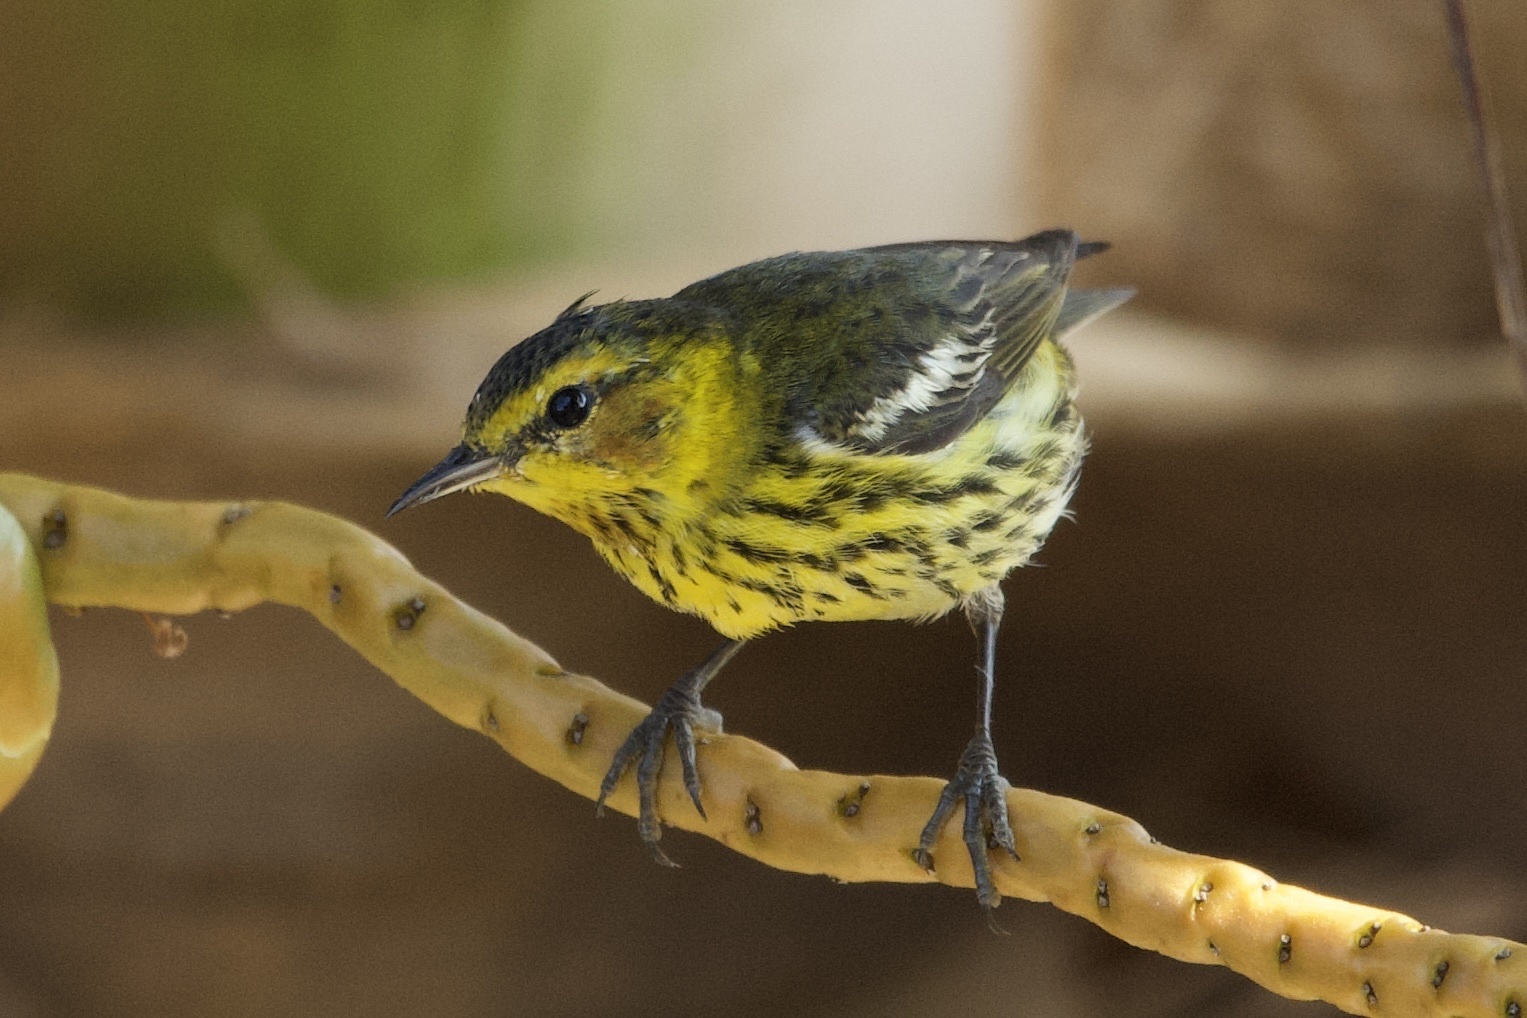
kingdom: Animalia
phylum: Chordata
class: Aves
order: Passeriformes
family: Parulidae
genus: Setophaga
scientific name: Setophaga tigrina
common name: Cape may warbler
